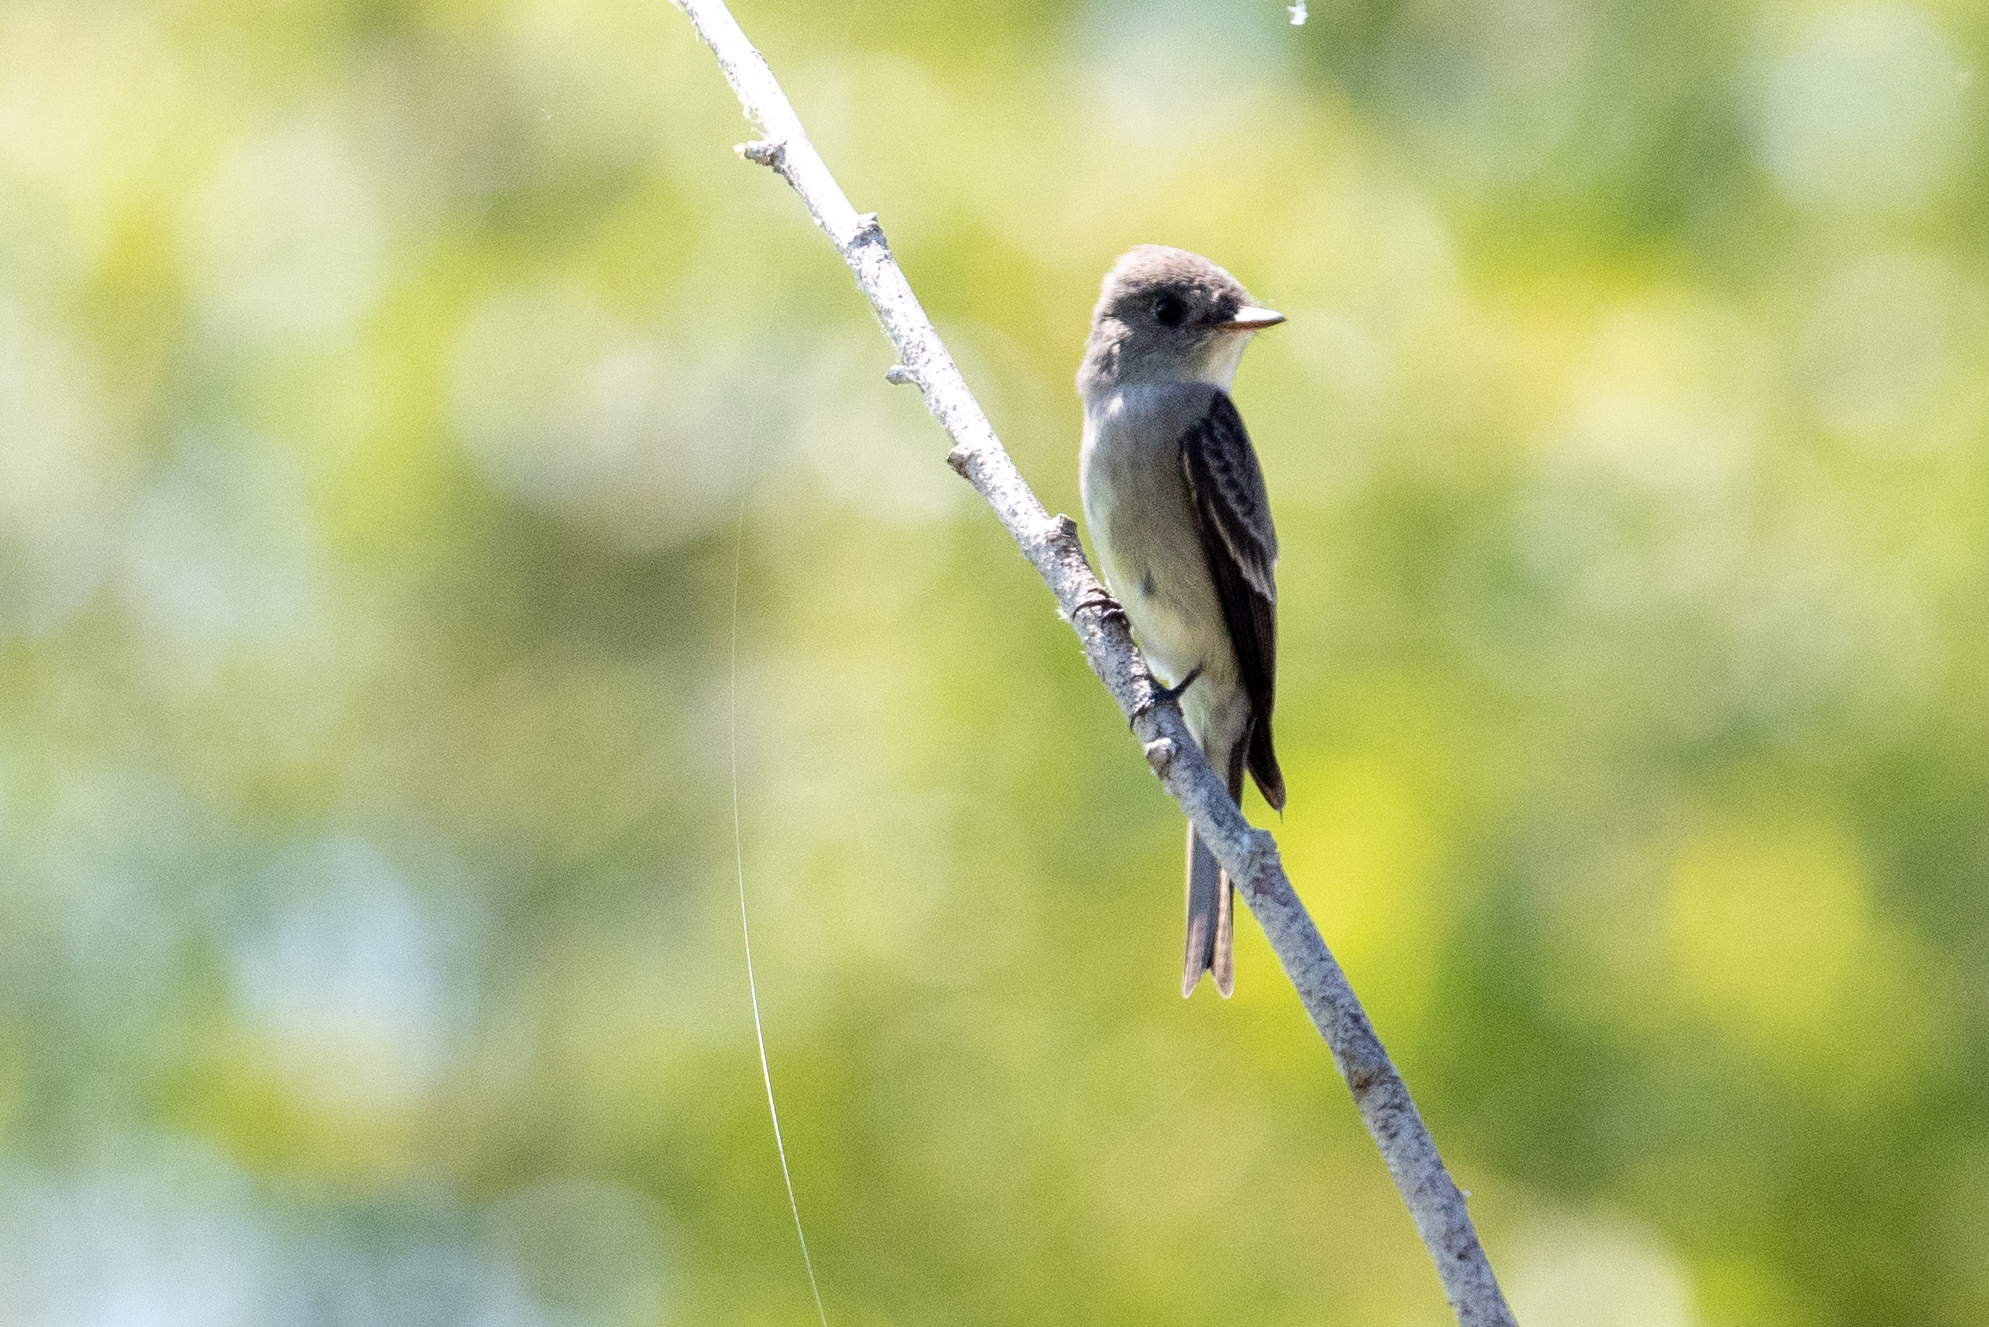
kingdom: Animalia
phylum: Chordata
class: Aves
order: Passeriformes
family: Tyrannidae
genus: Contopus
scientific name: Contopus sordidulus
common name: Western wood-pewee
